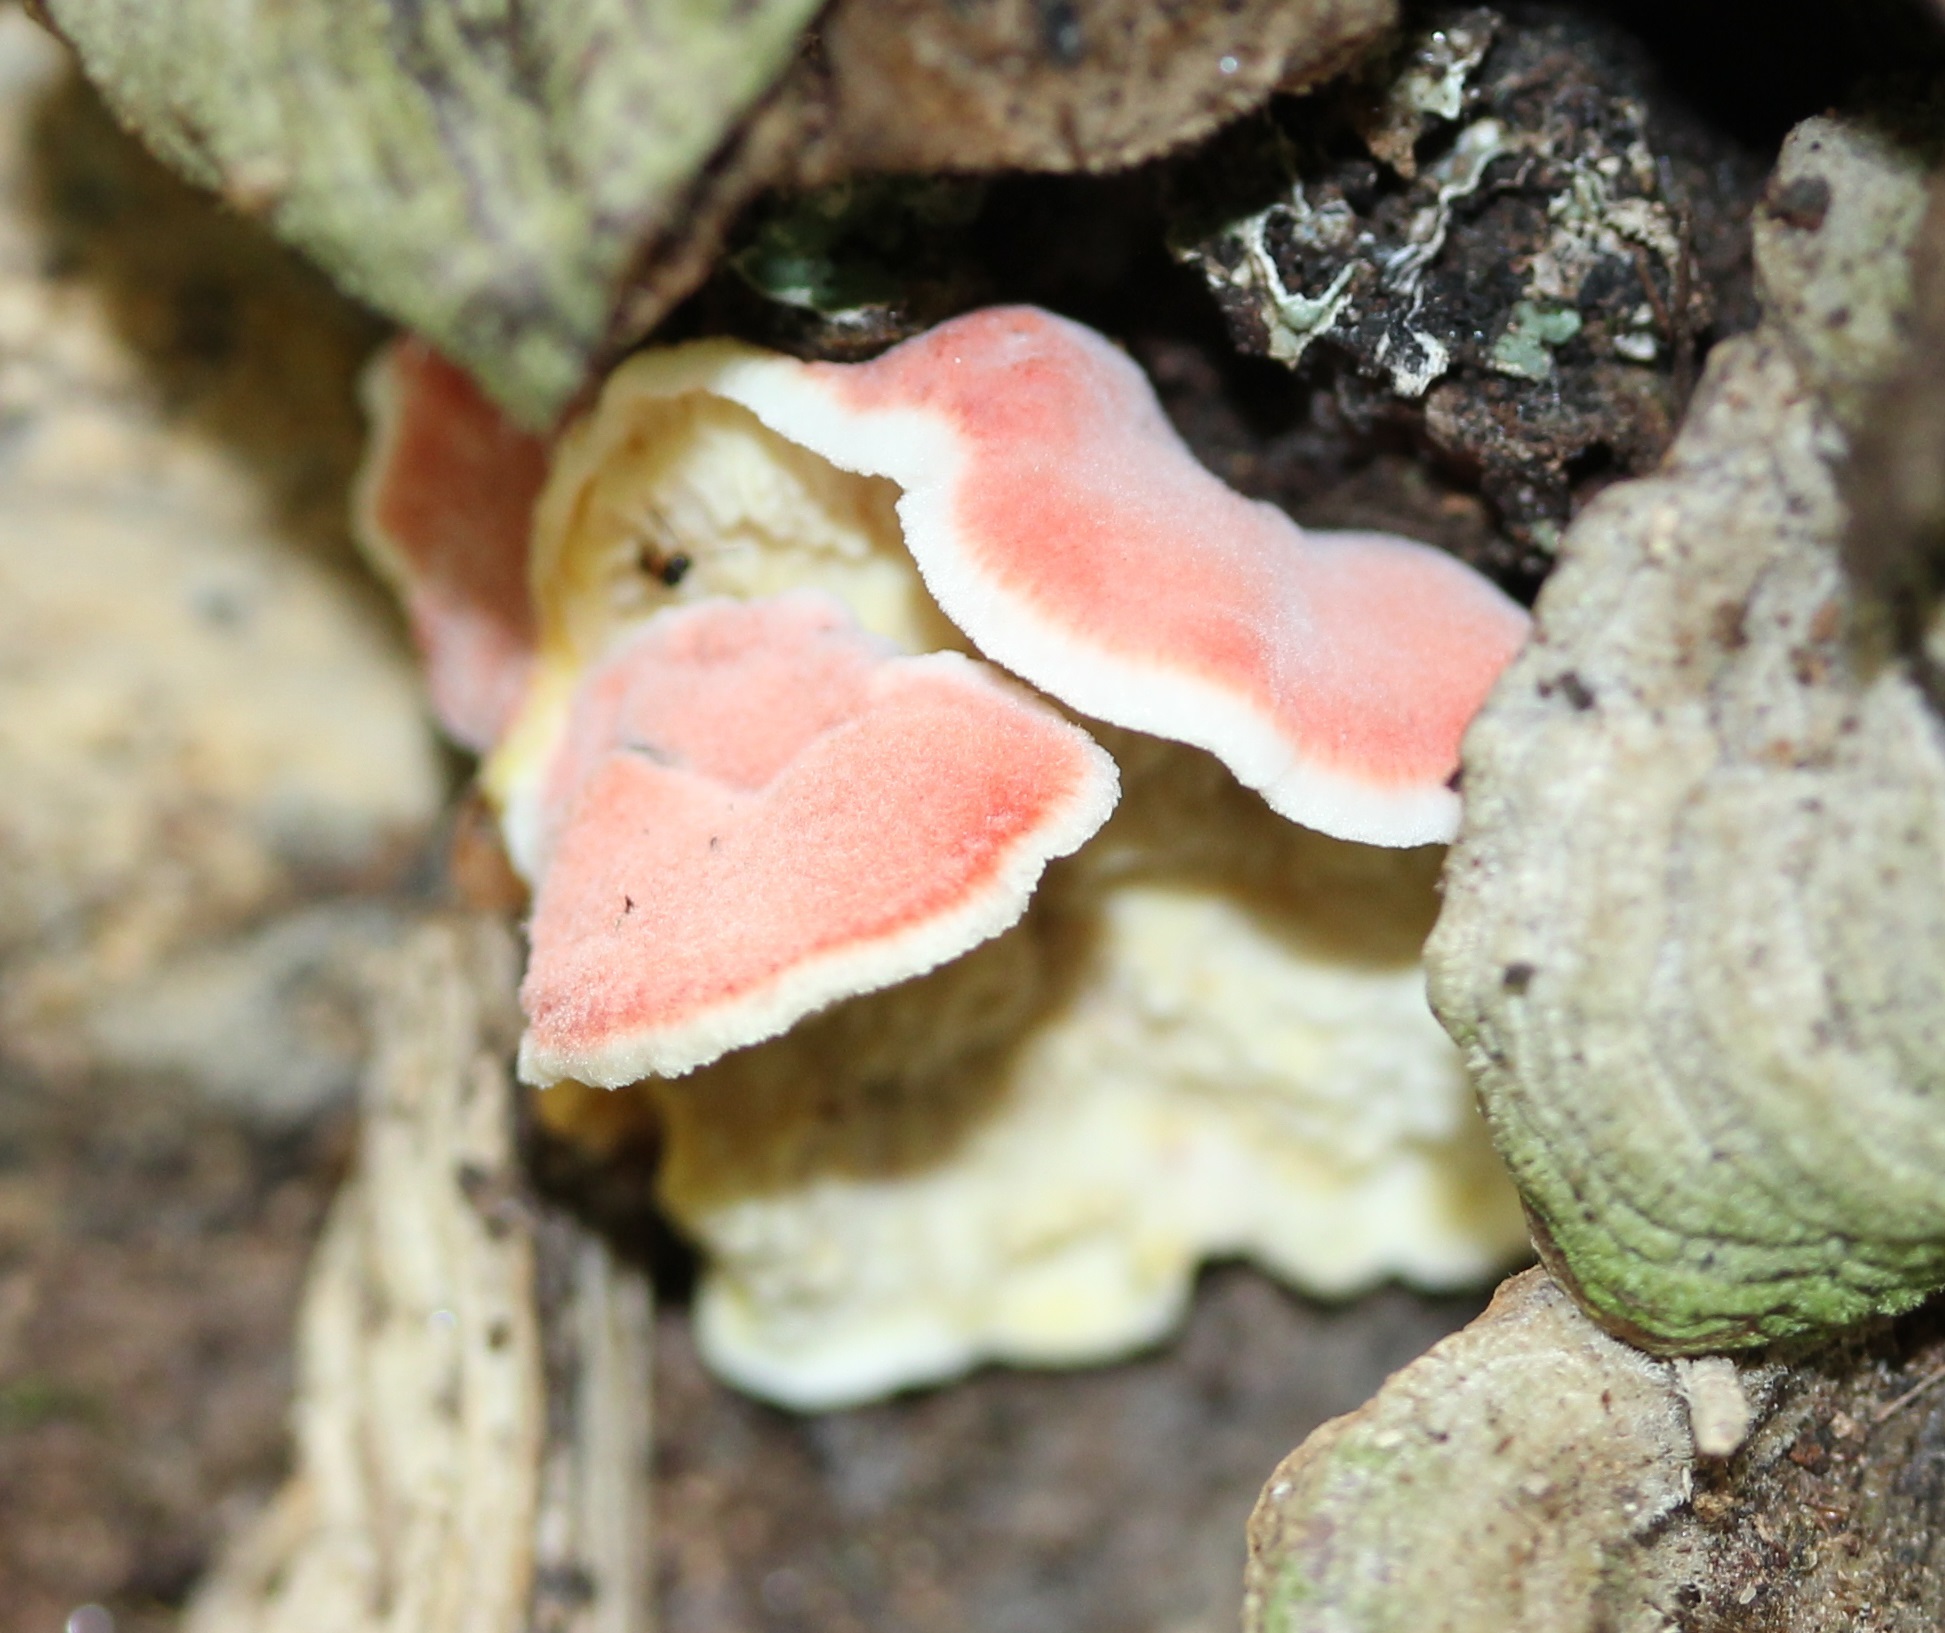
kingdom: Fungi
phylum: Basidiomycota
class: Agaricomycetes
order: Polyporales
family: Irpicaceae
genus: Byssomerulius
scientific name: Byssomerulius incarnatus
